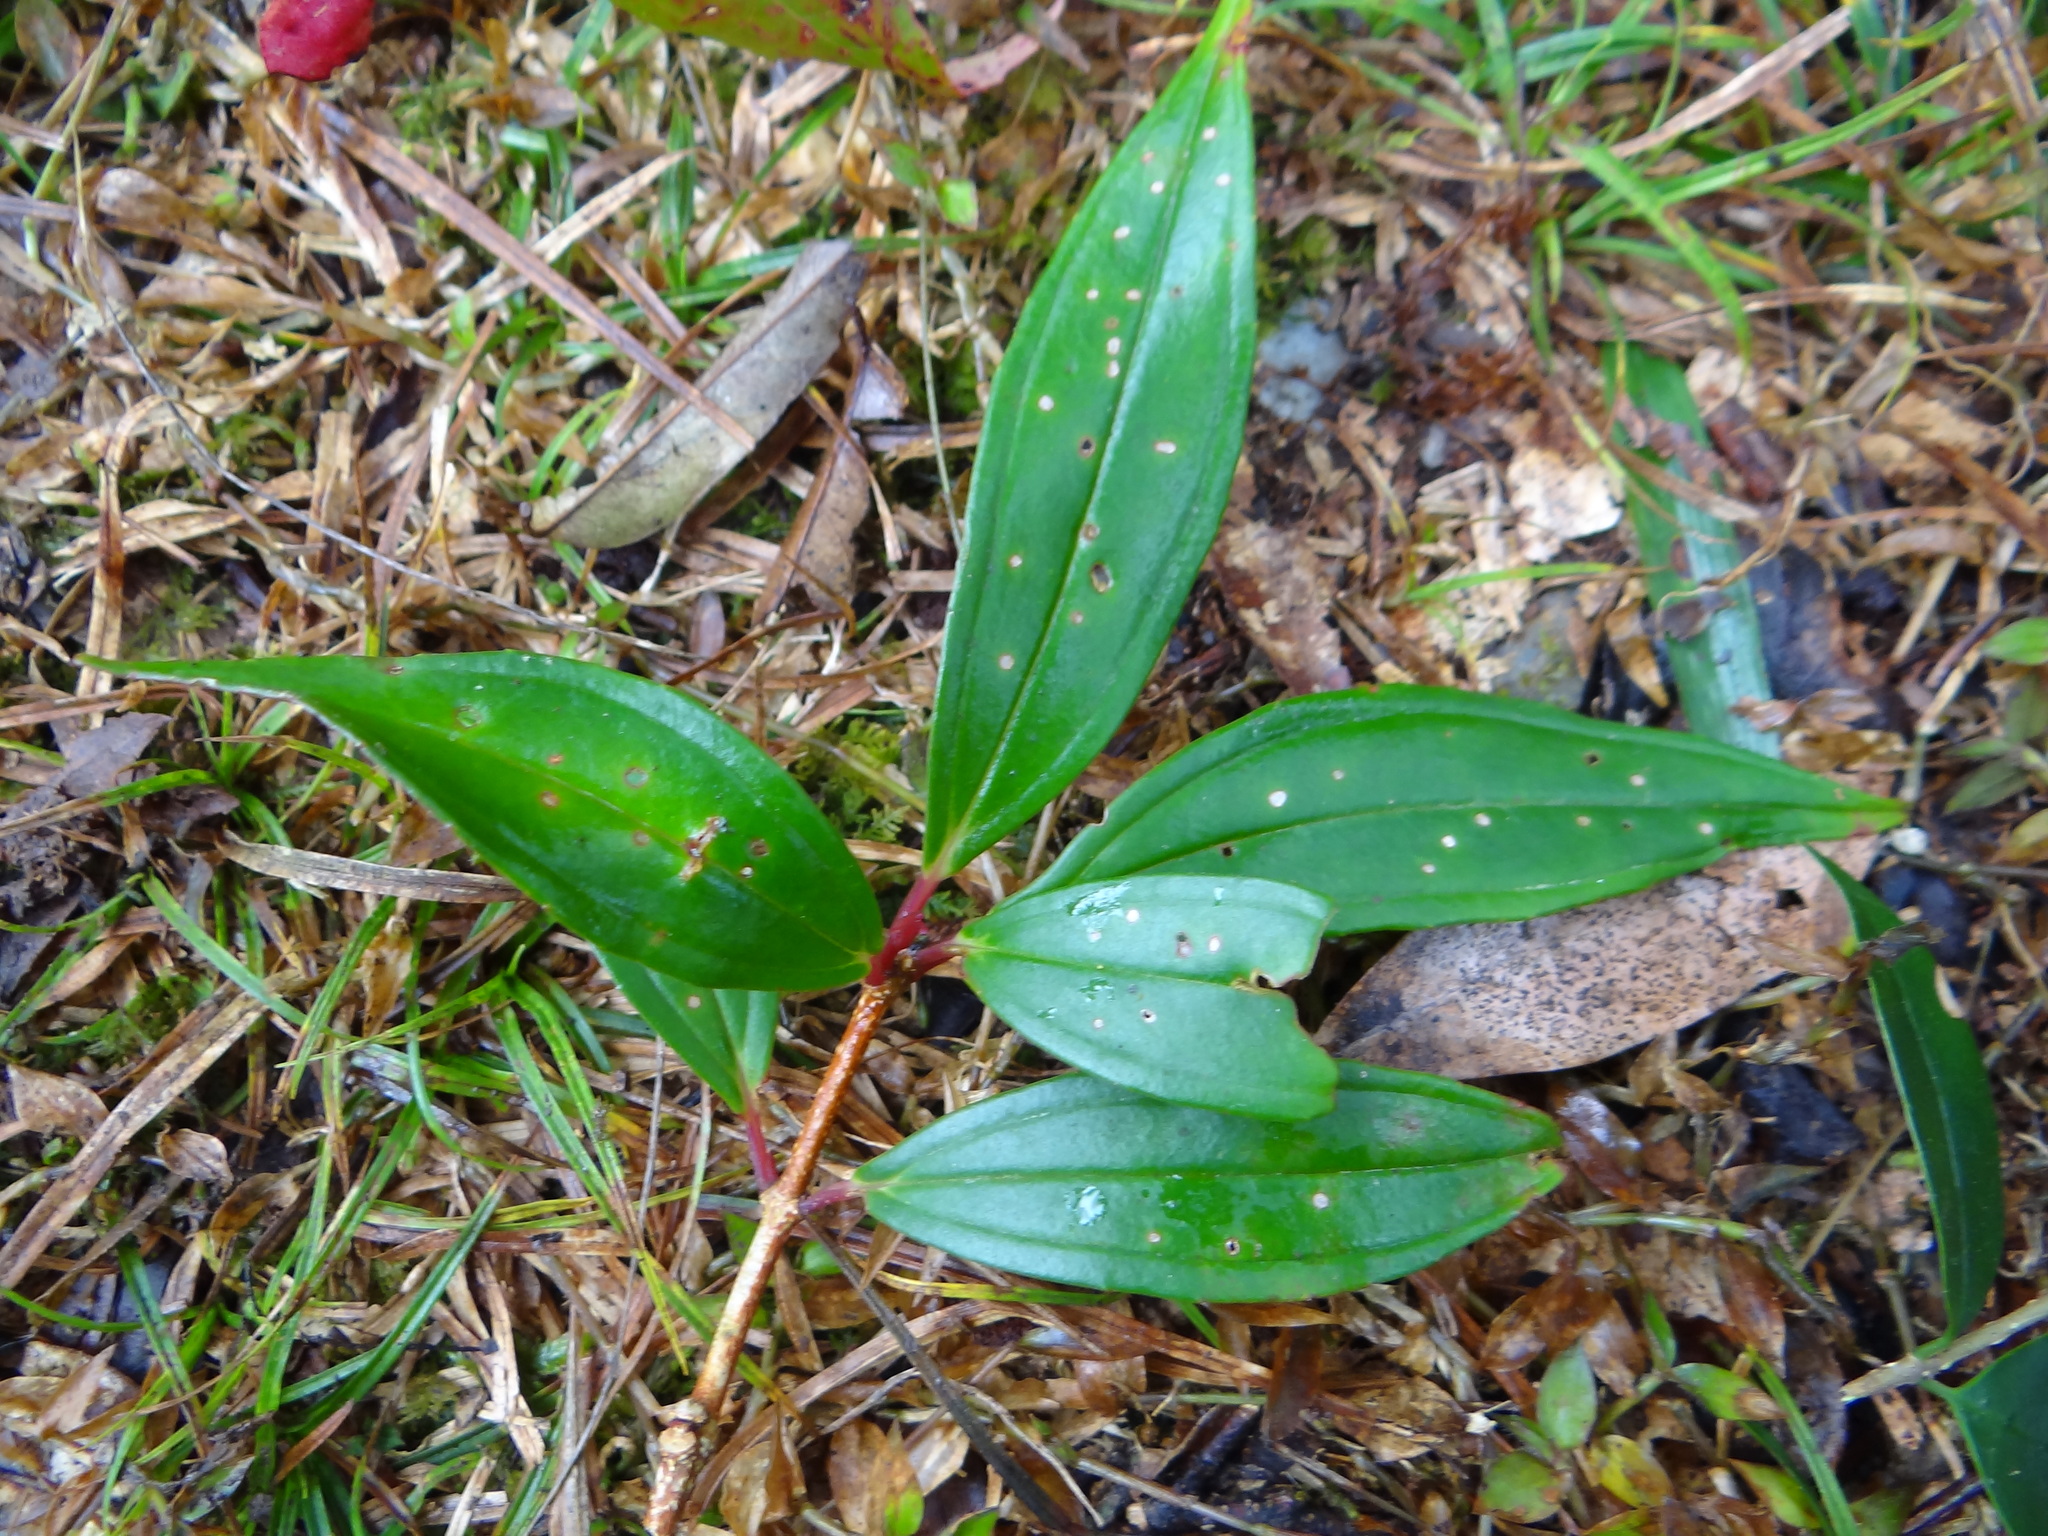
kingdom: Plantae
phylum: Tracheophyta
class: Magnoliopsida
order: Myrtales
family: Melastomataceae
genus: Medinilla
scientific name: Medinilla fengii
